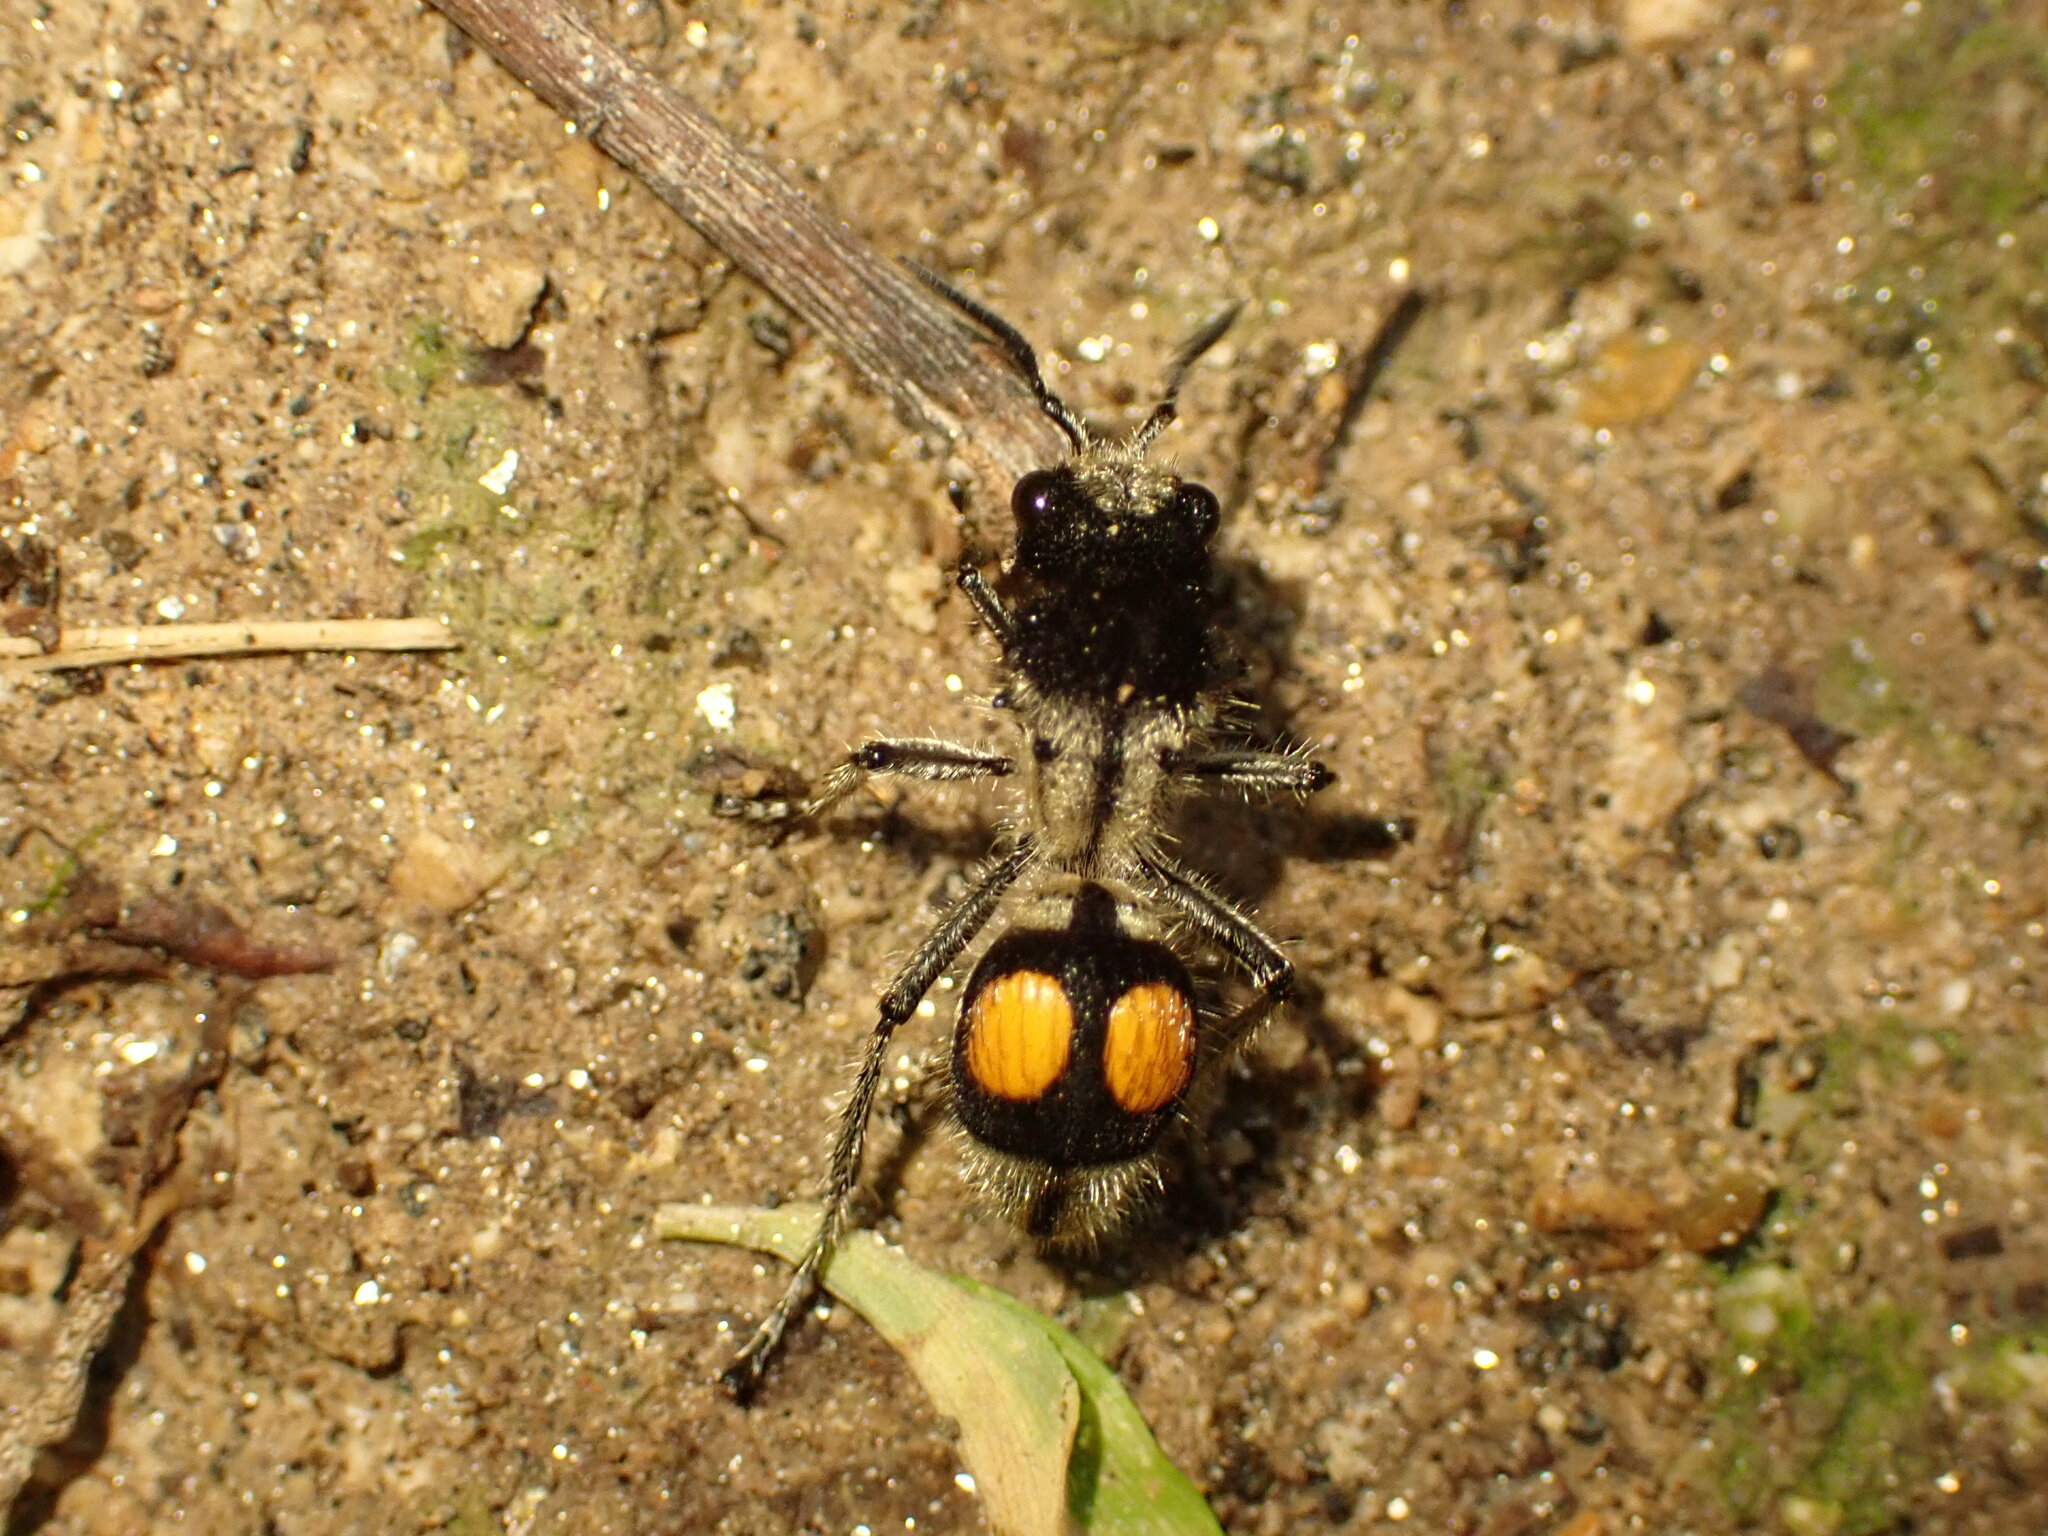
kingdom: Animalia
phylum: Arthropoda
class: Insecta
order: Hymenoptera
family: Mutillidae
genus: Hoplomutilla
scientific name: Hoplomutilla
